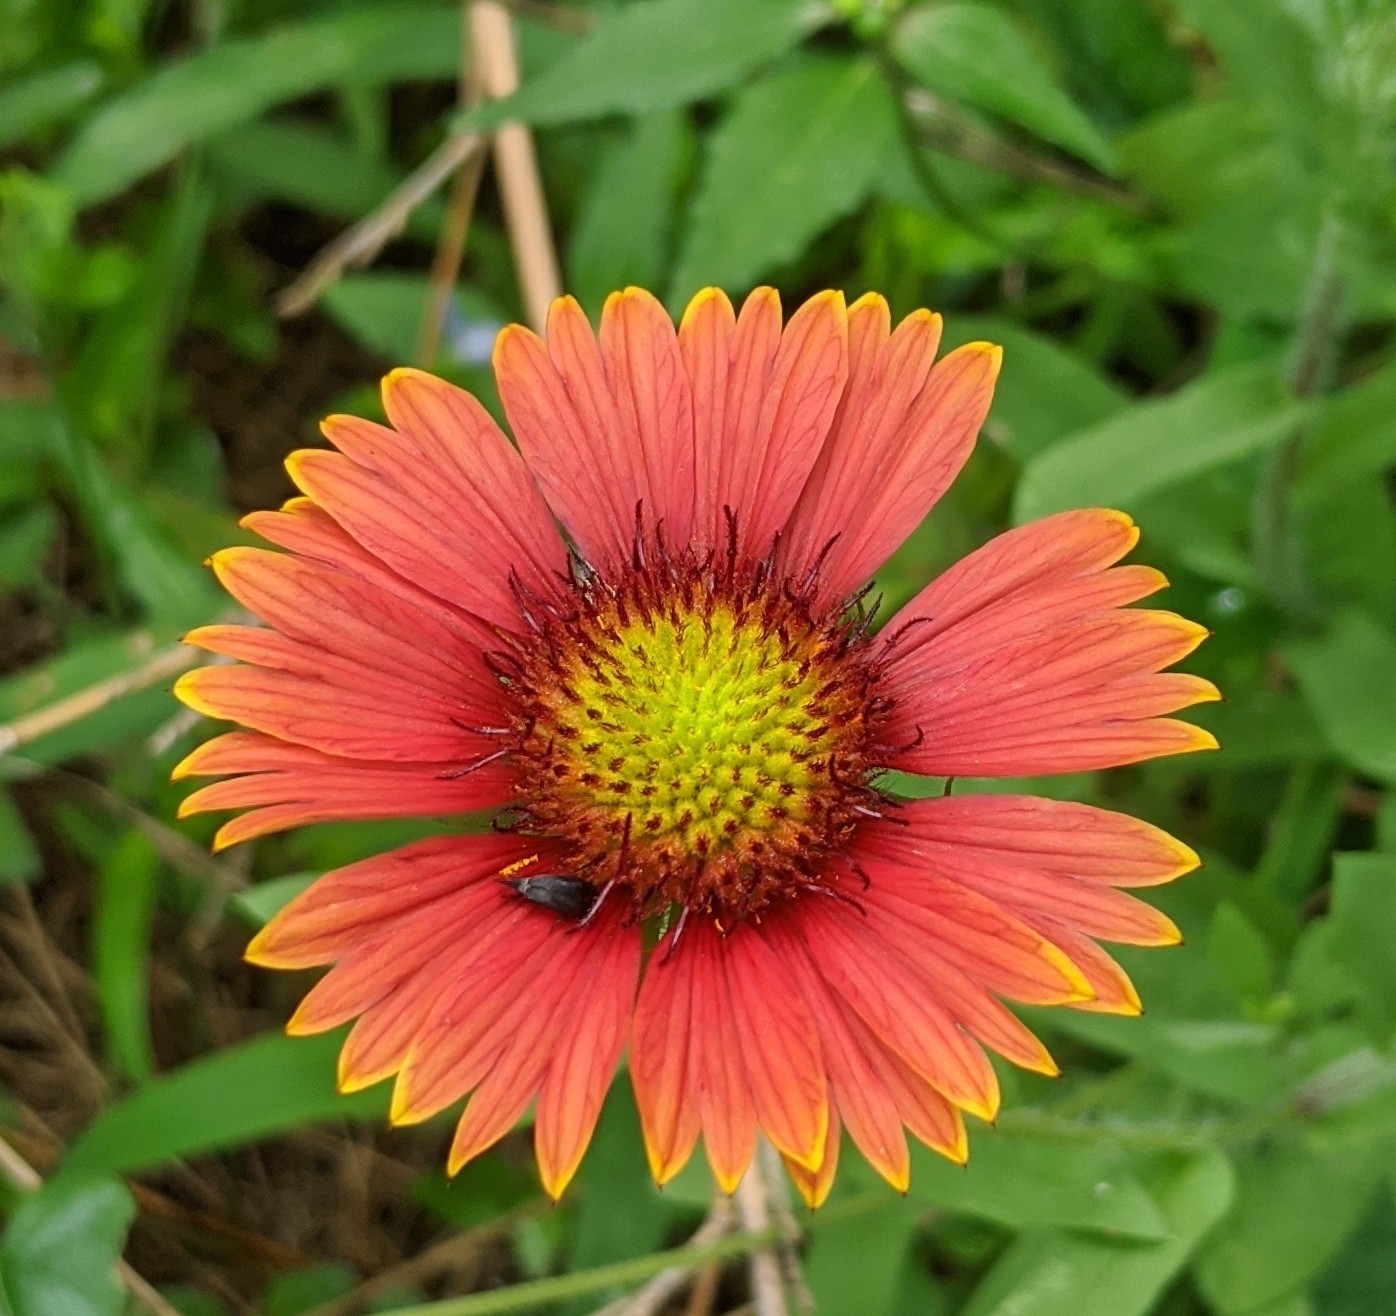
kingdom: Plantae
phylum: Tracheophyta
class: Magnoliopsida
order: Asterales
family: Asteraceae
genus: Gaillardia
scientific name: Gaillardia pulchella
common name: Firewheel
